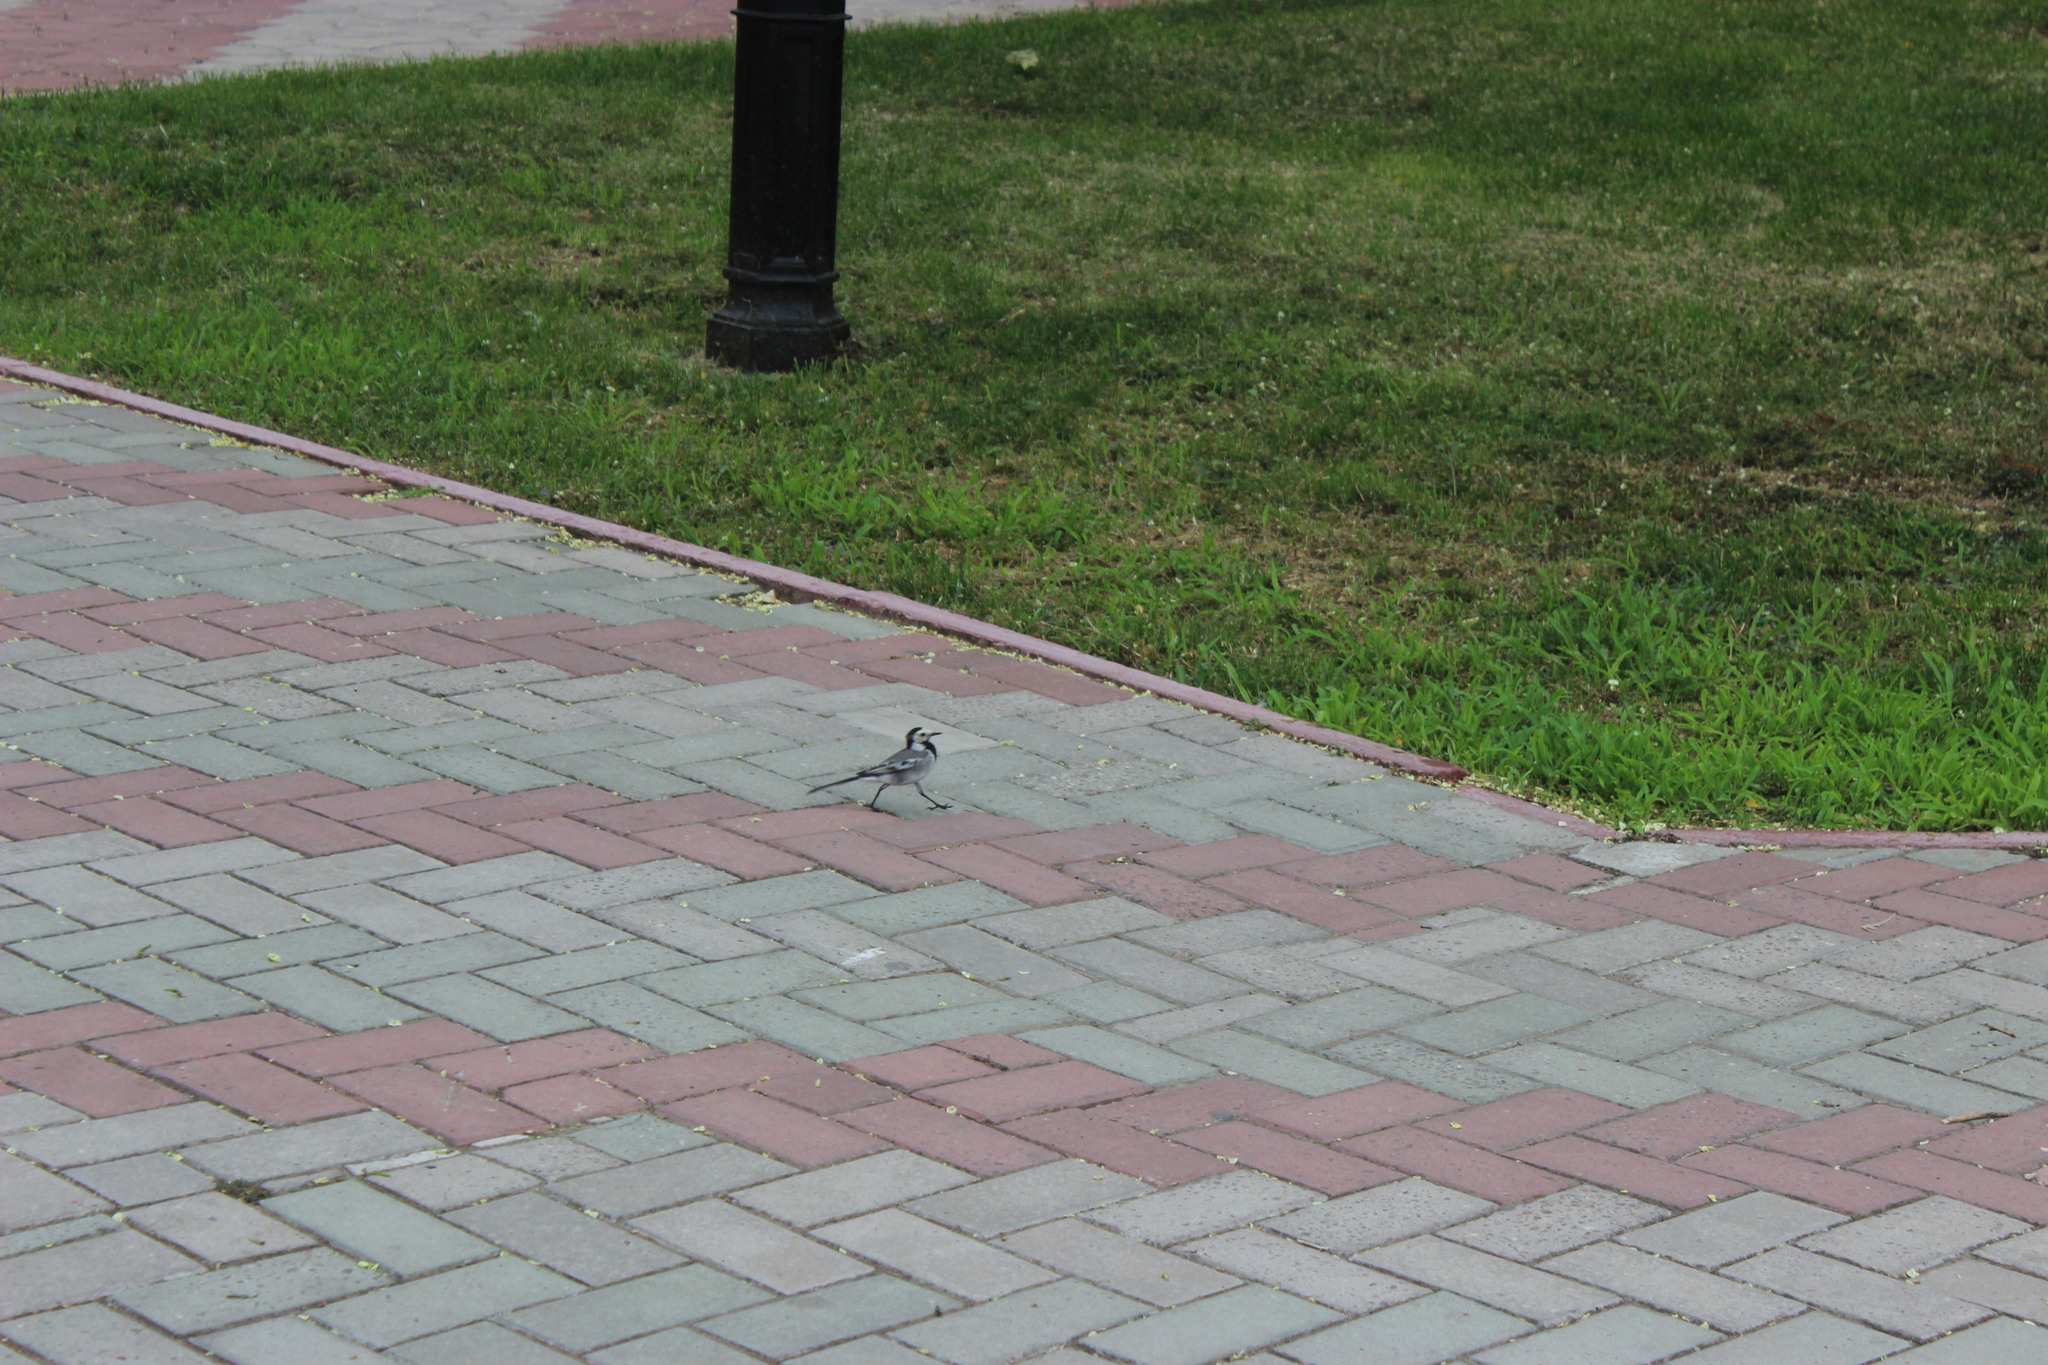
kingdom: Animalia
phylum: Chordata
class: Aves
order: Passeriformes
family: Motacillidae
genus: Motacilla
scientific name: Motacilla alba
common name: White wagtail
